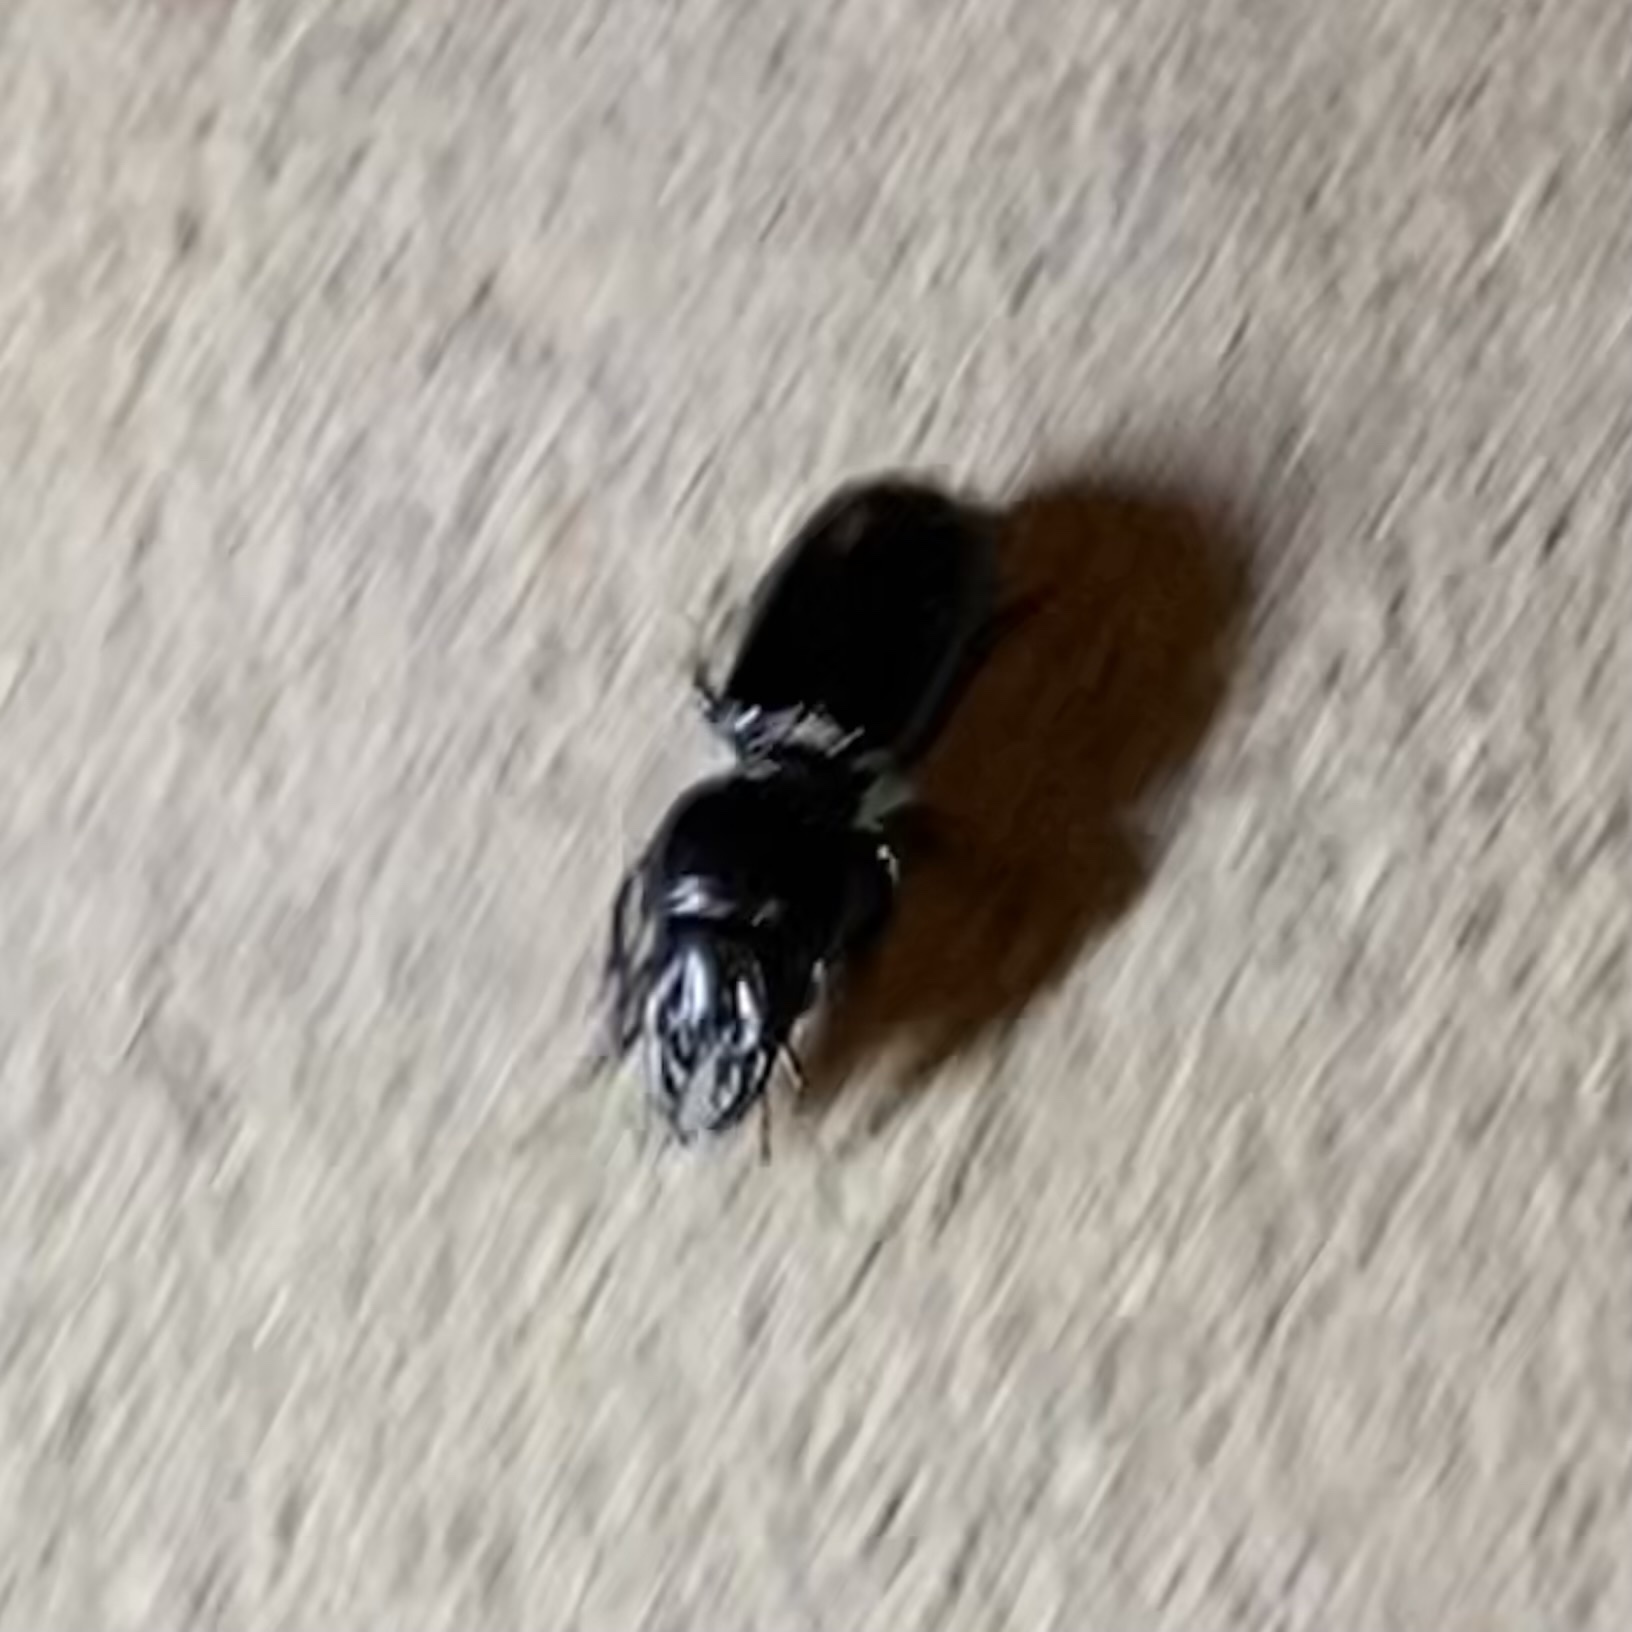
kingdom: Animalia
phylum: Arthropoda
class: Insecta
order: Coleoptera
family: Carabidae
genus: Scarites
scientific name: Scarites
